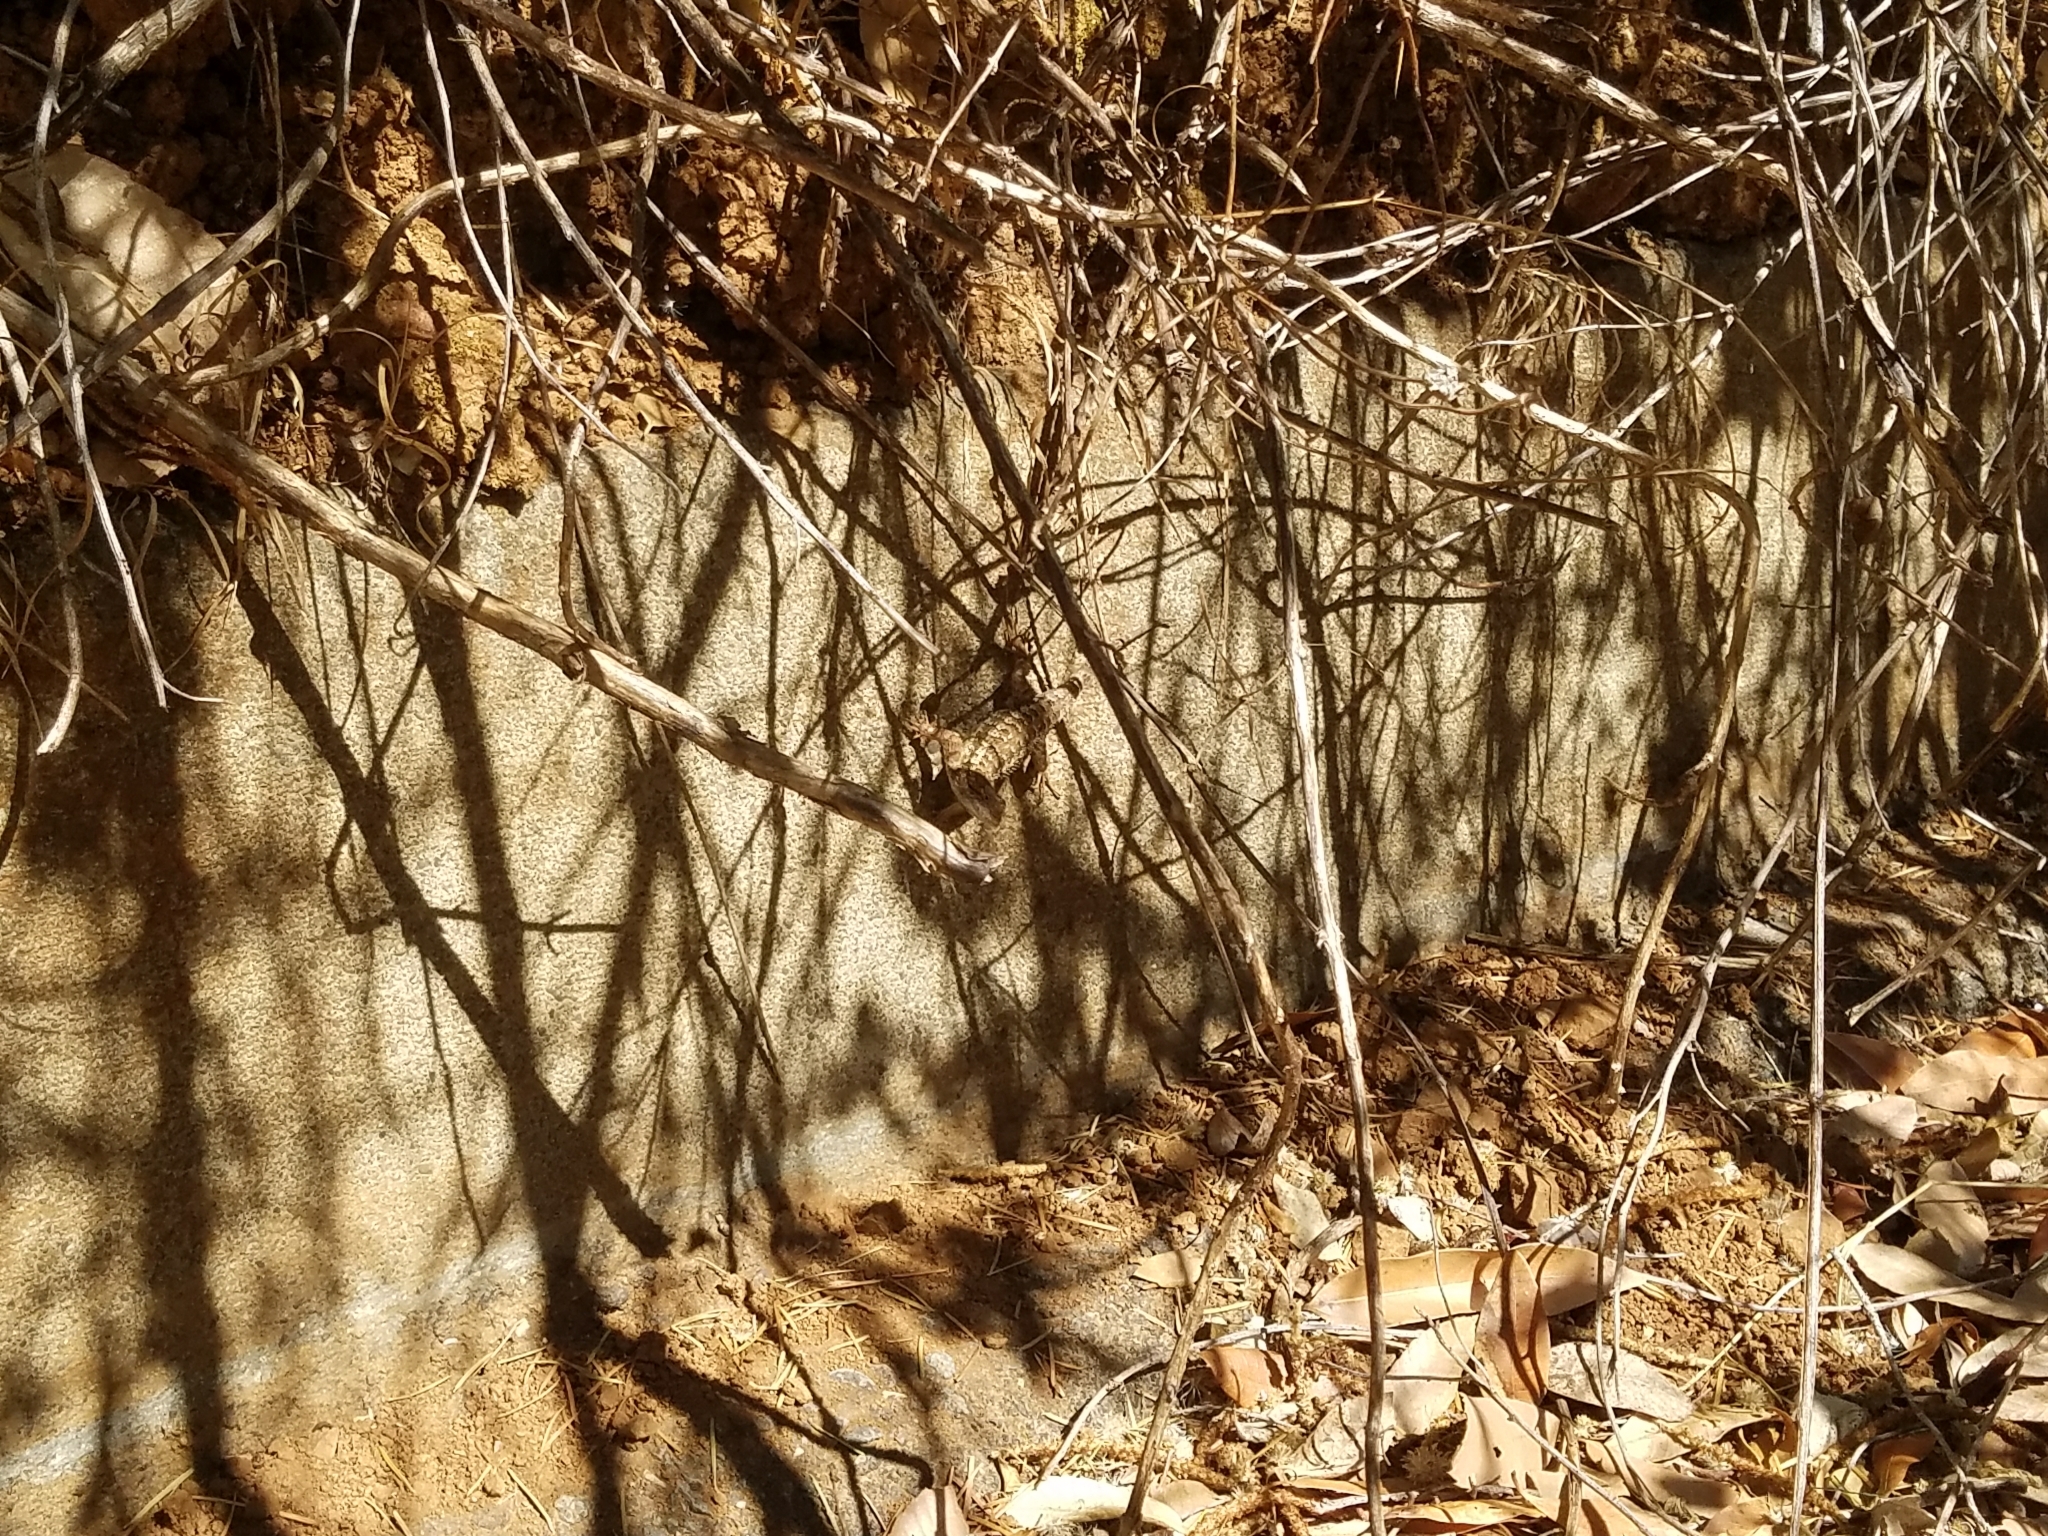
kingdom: Animalia
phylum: Chordata
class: Squamata
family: Phrynosomatidae
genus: Sceloporus
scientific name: Sceloporus occidentalis
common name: Western fence lizard
